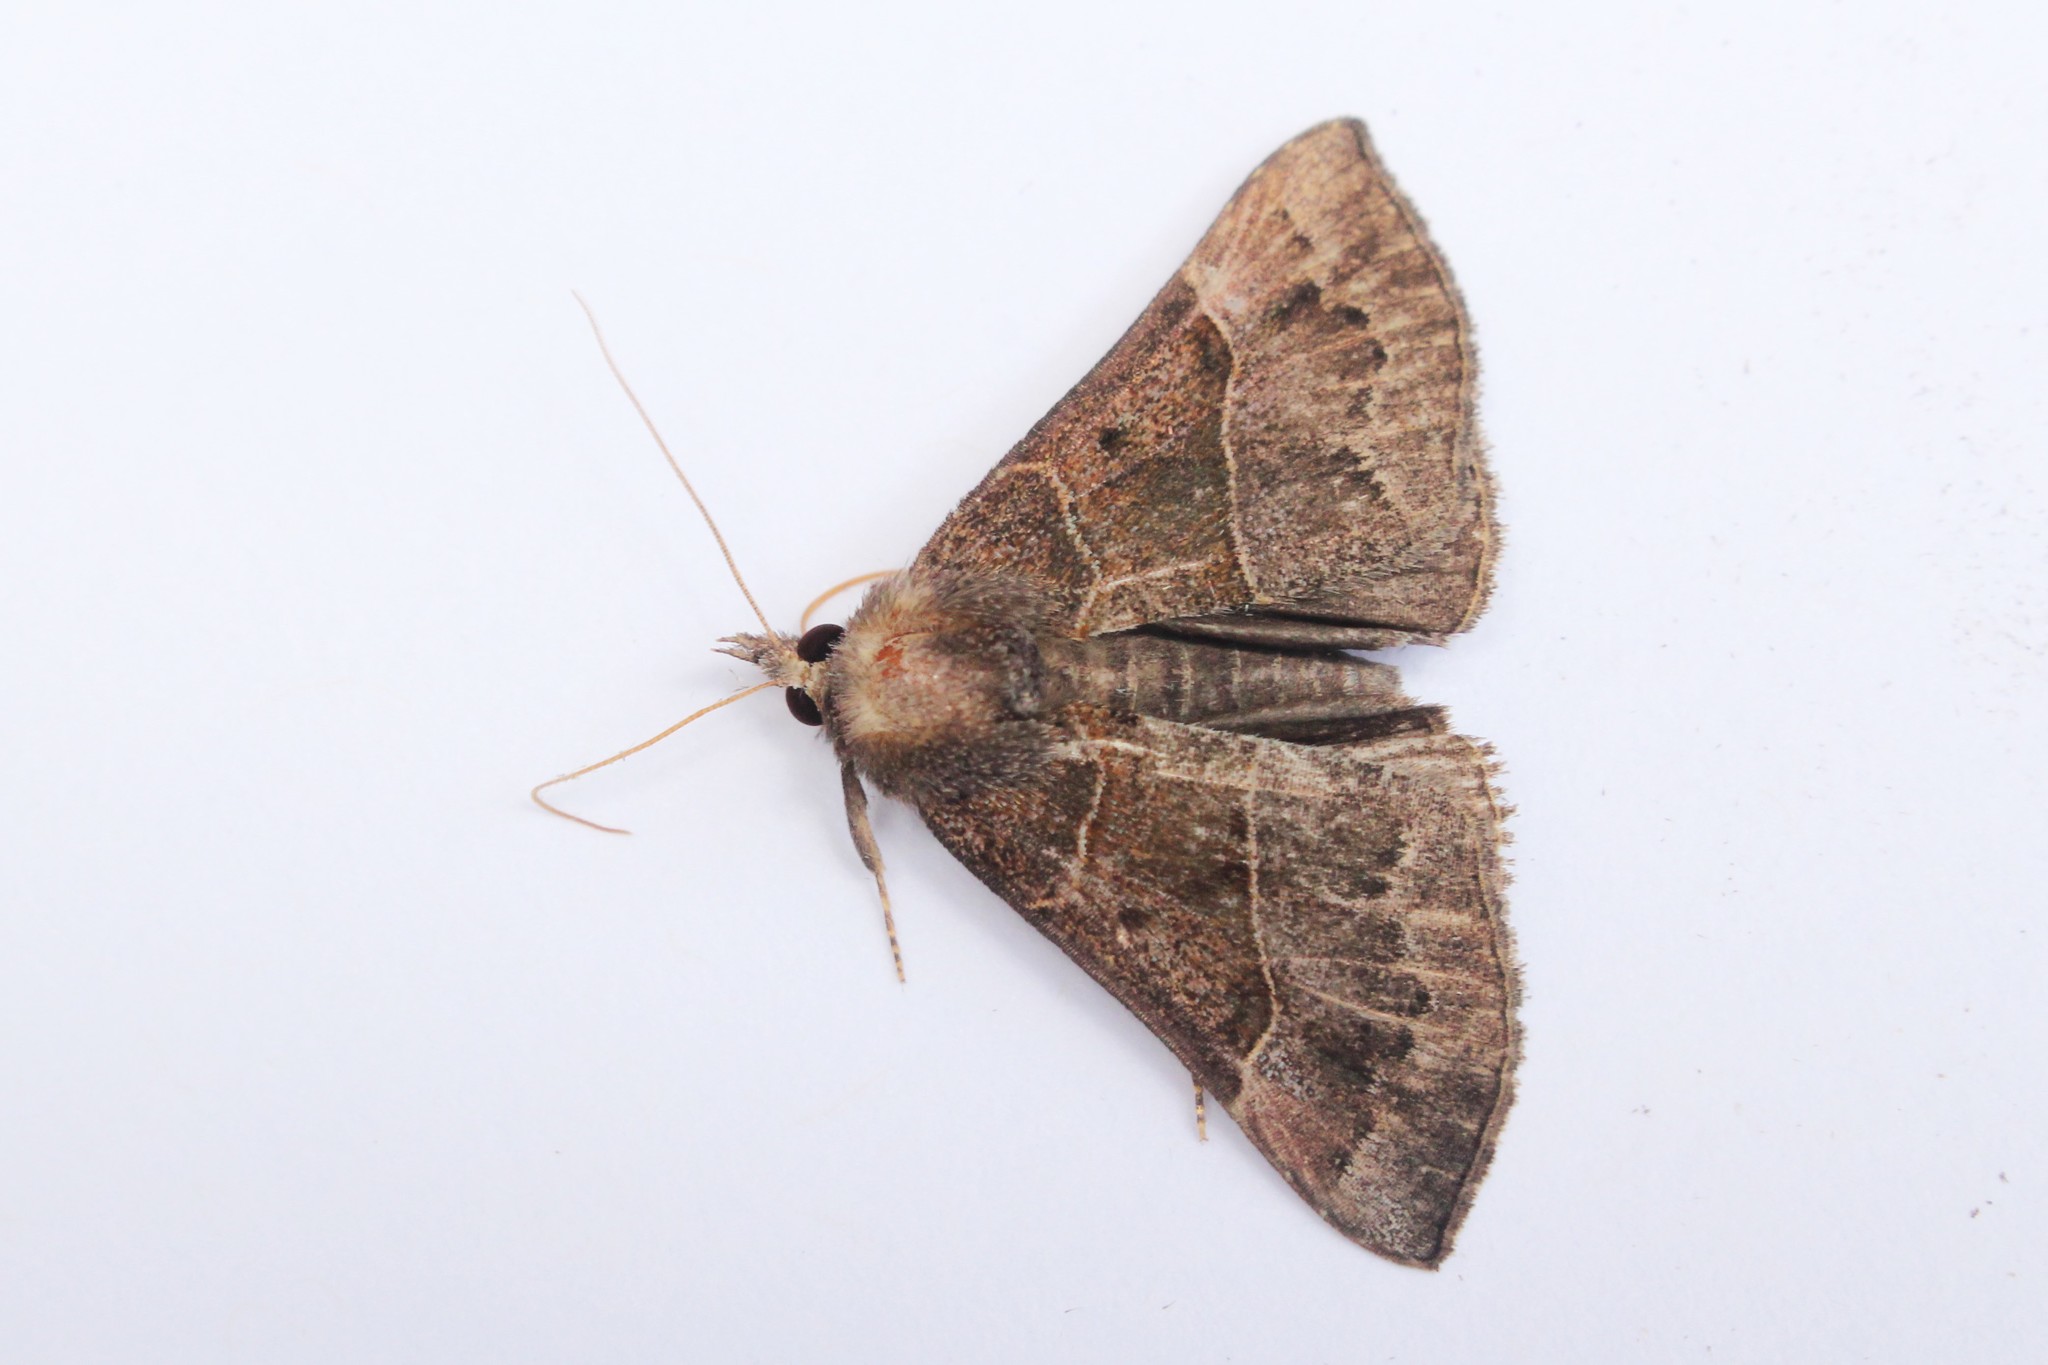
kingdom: Animalia
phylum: Arthropoda
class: Insecta
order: Lepidoptera
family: Erebidae
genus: Hypena
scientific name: Hypena deceptalis
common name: Deceptive snout
